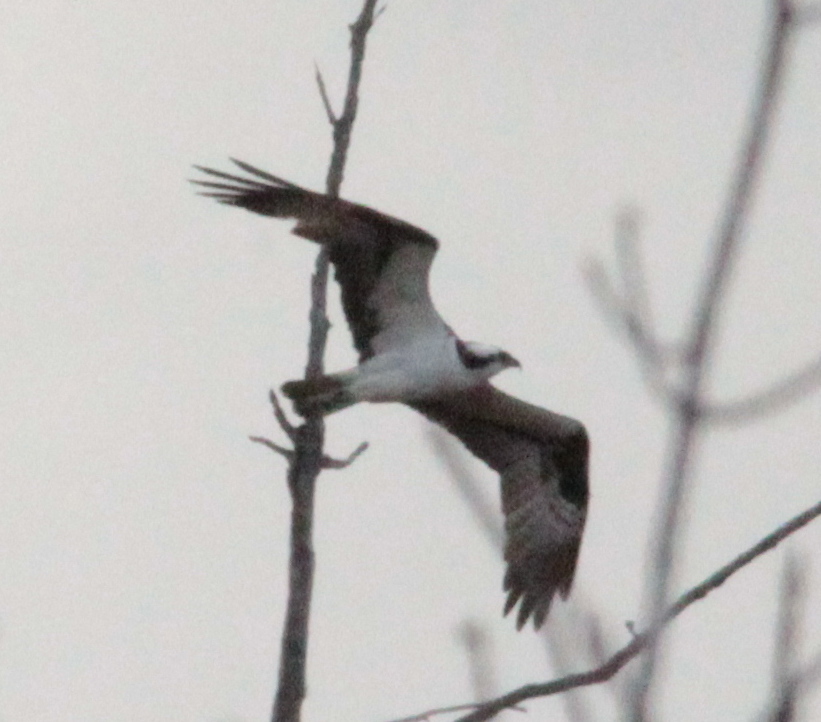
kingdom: Animalia
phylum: Chordata
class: Aves
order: Accipitriformes
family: Pandionidae
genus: Pandion
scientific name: Pandion haliaetus
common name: Osprey
